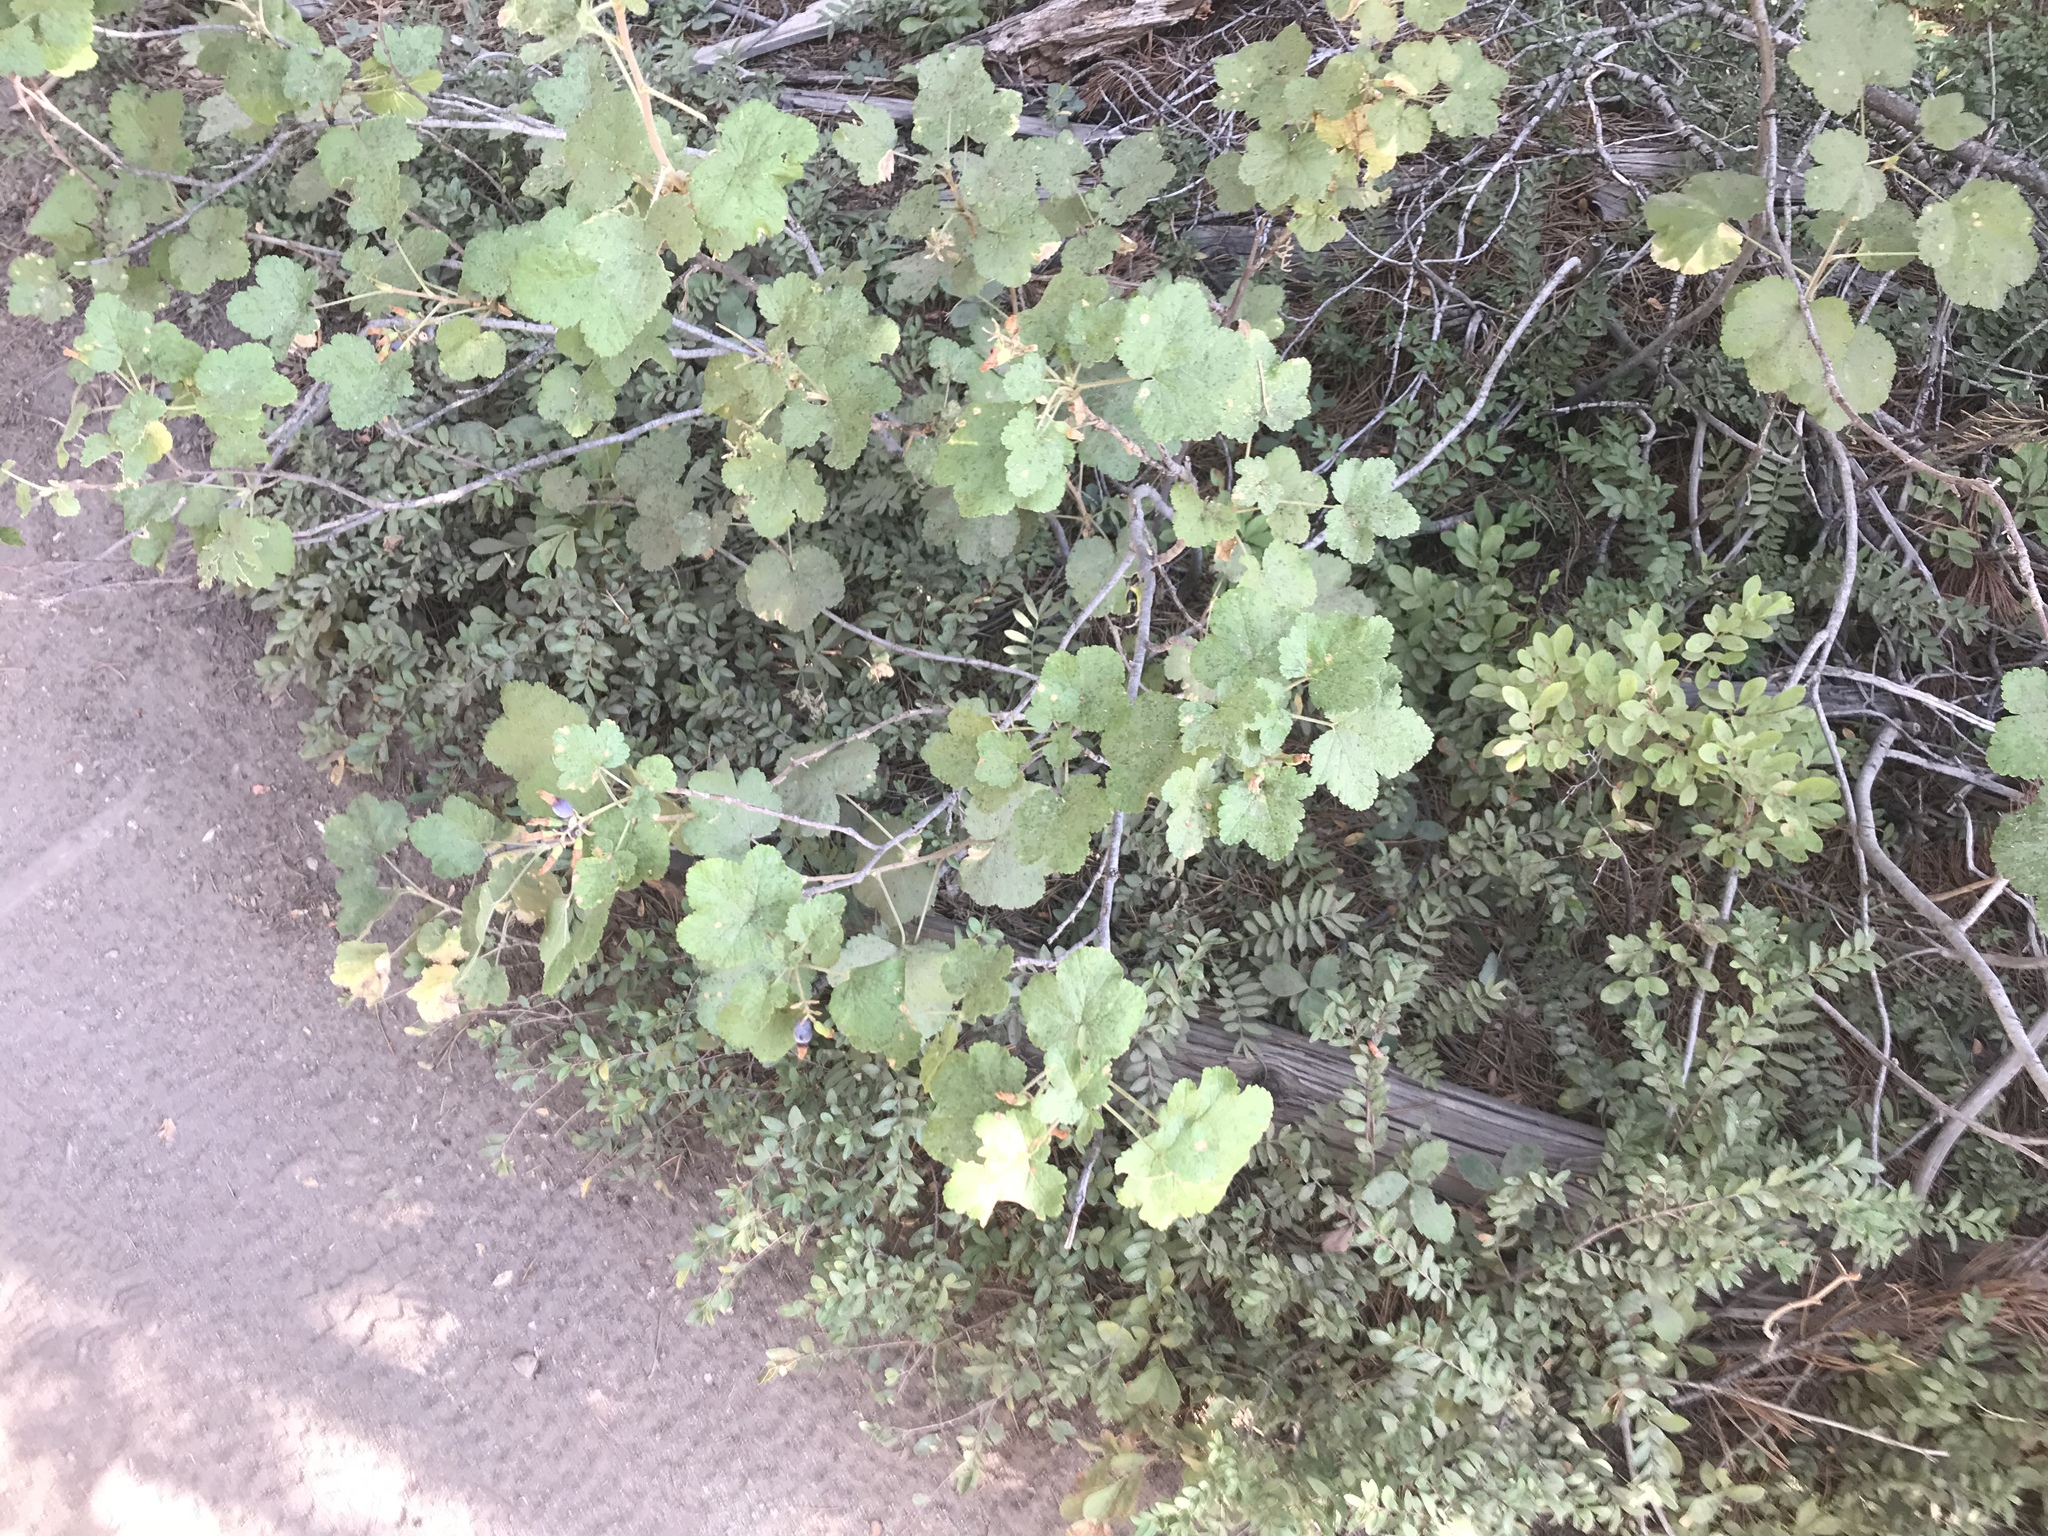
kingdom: Plantae
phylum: Tracheophyta
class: Magnoliopsida
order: Saxifragales
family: Grossulariaceae
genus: Ribes
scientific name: Ribes viscosissimum
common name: Sticky currant
